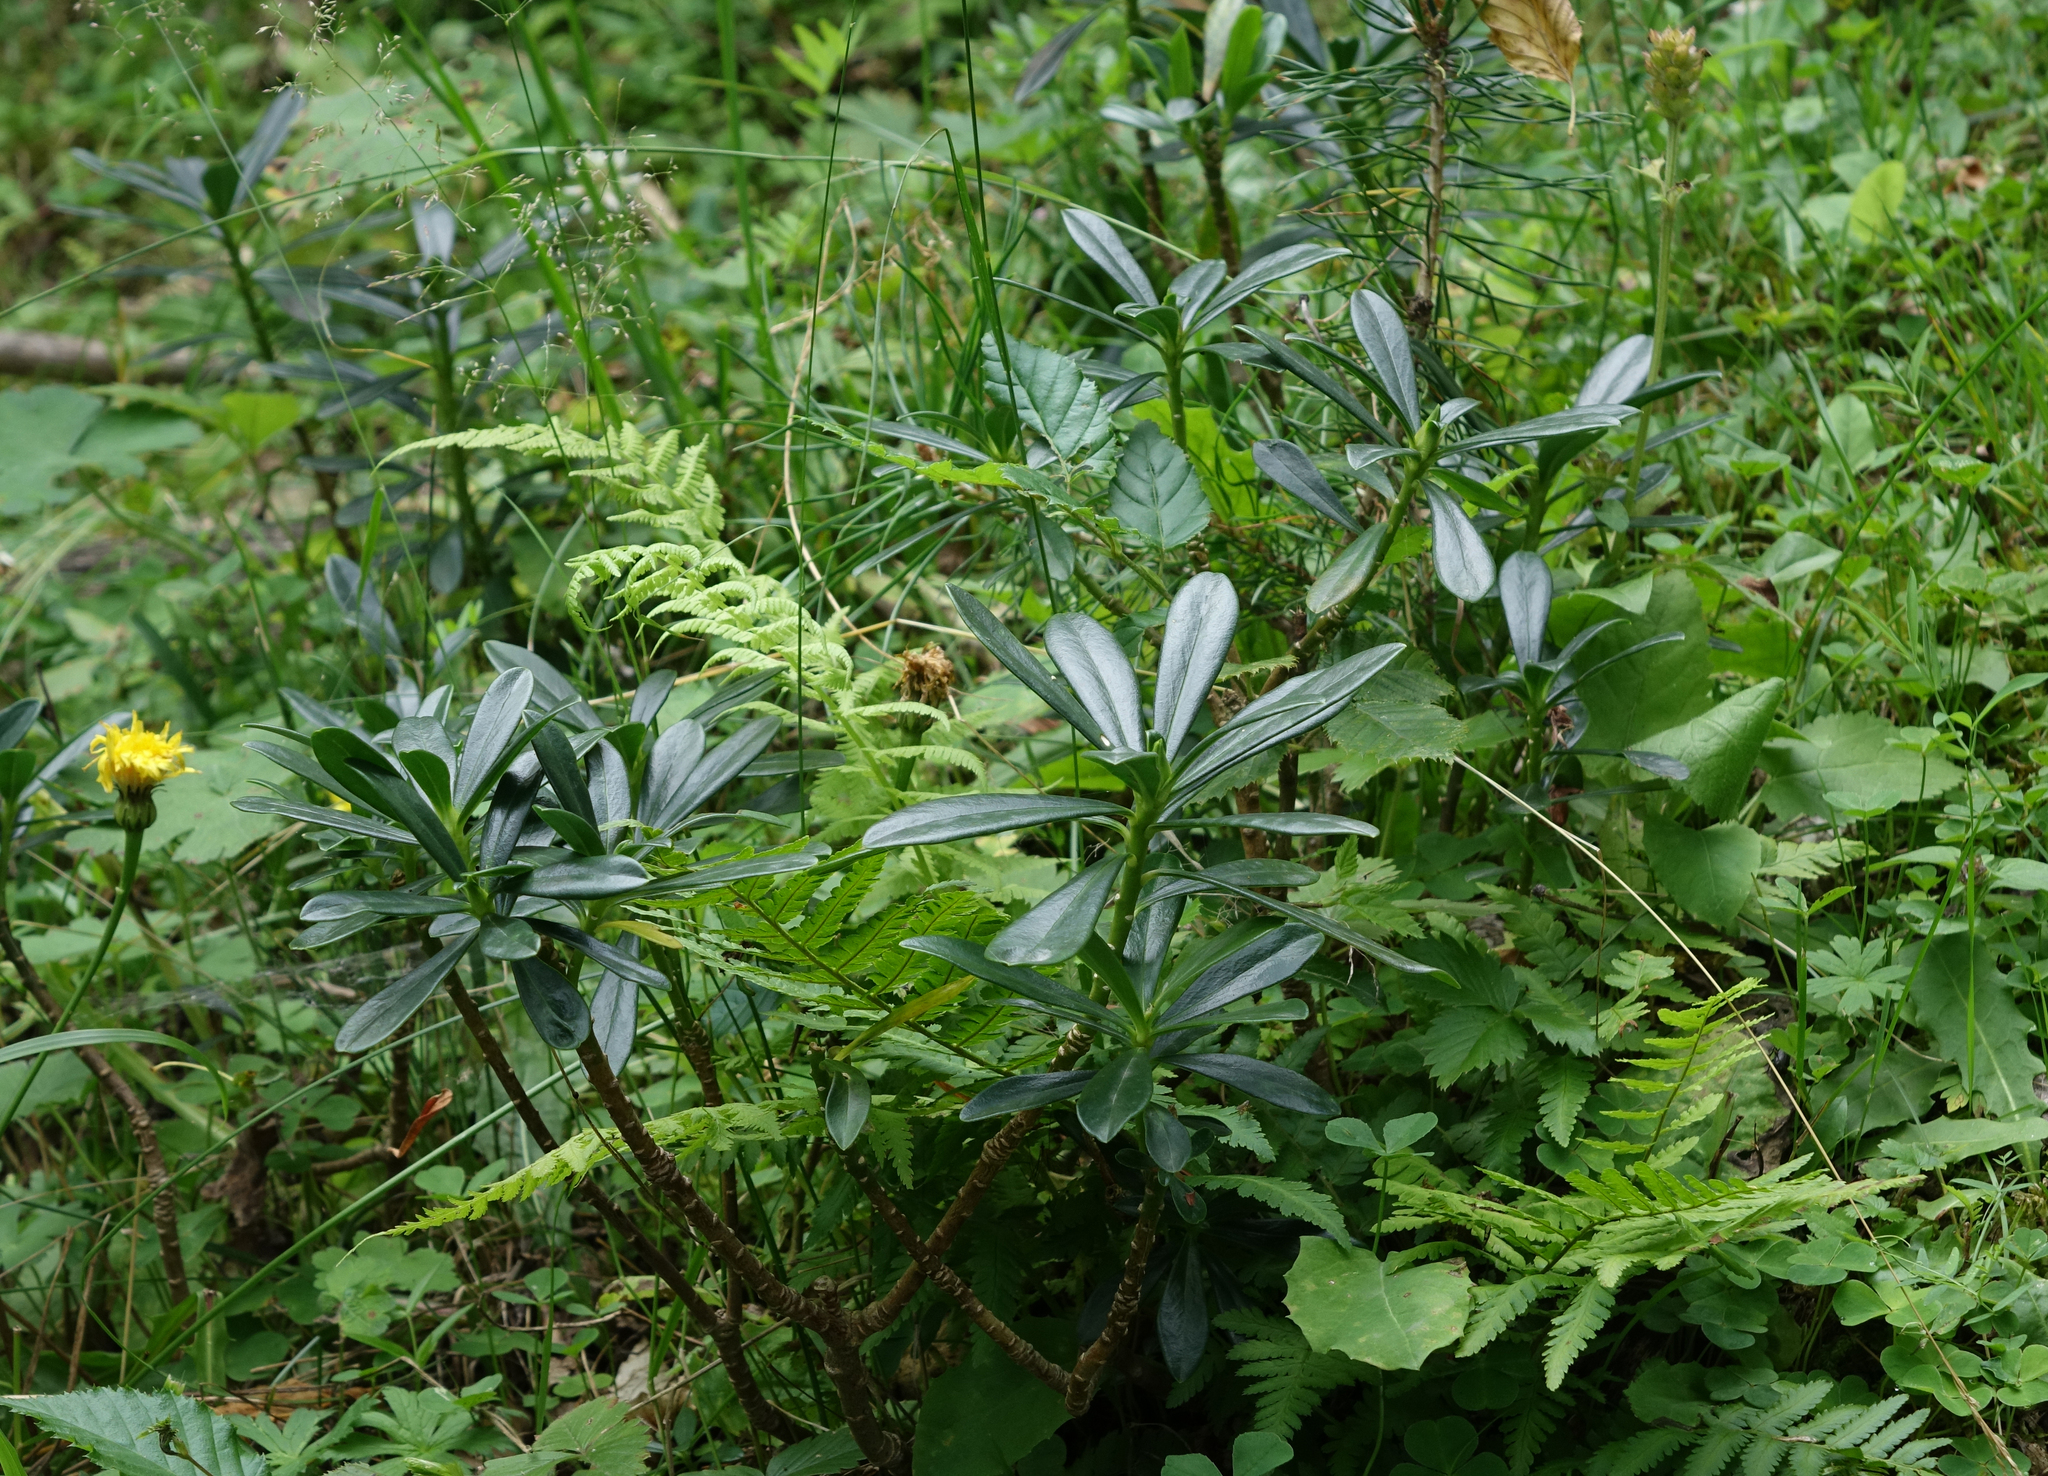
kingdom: Plantae
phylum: Tracheophyta
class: Magnoliopsida
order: Malvales
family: Thymelaeaceae
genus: Daphne
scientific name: Daphne glomerata
